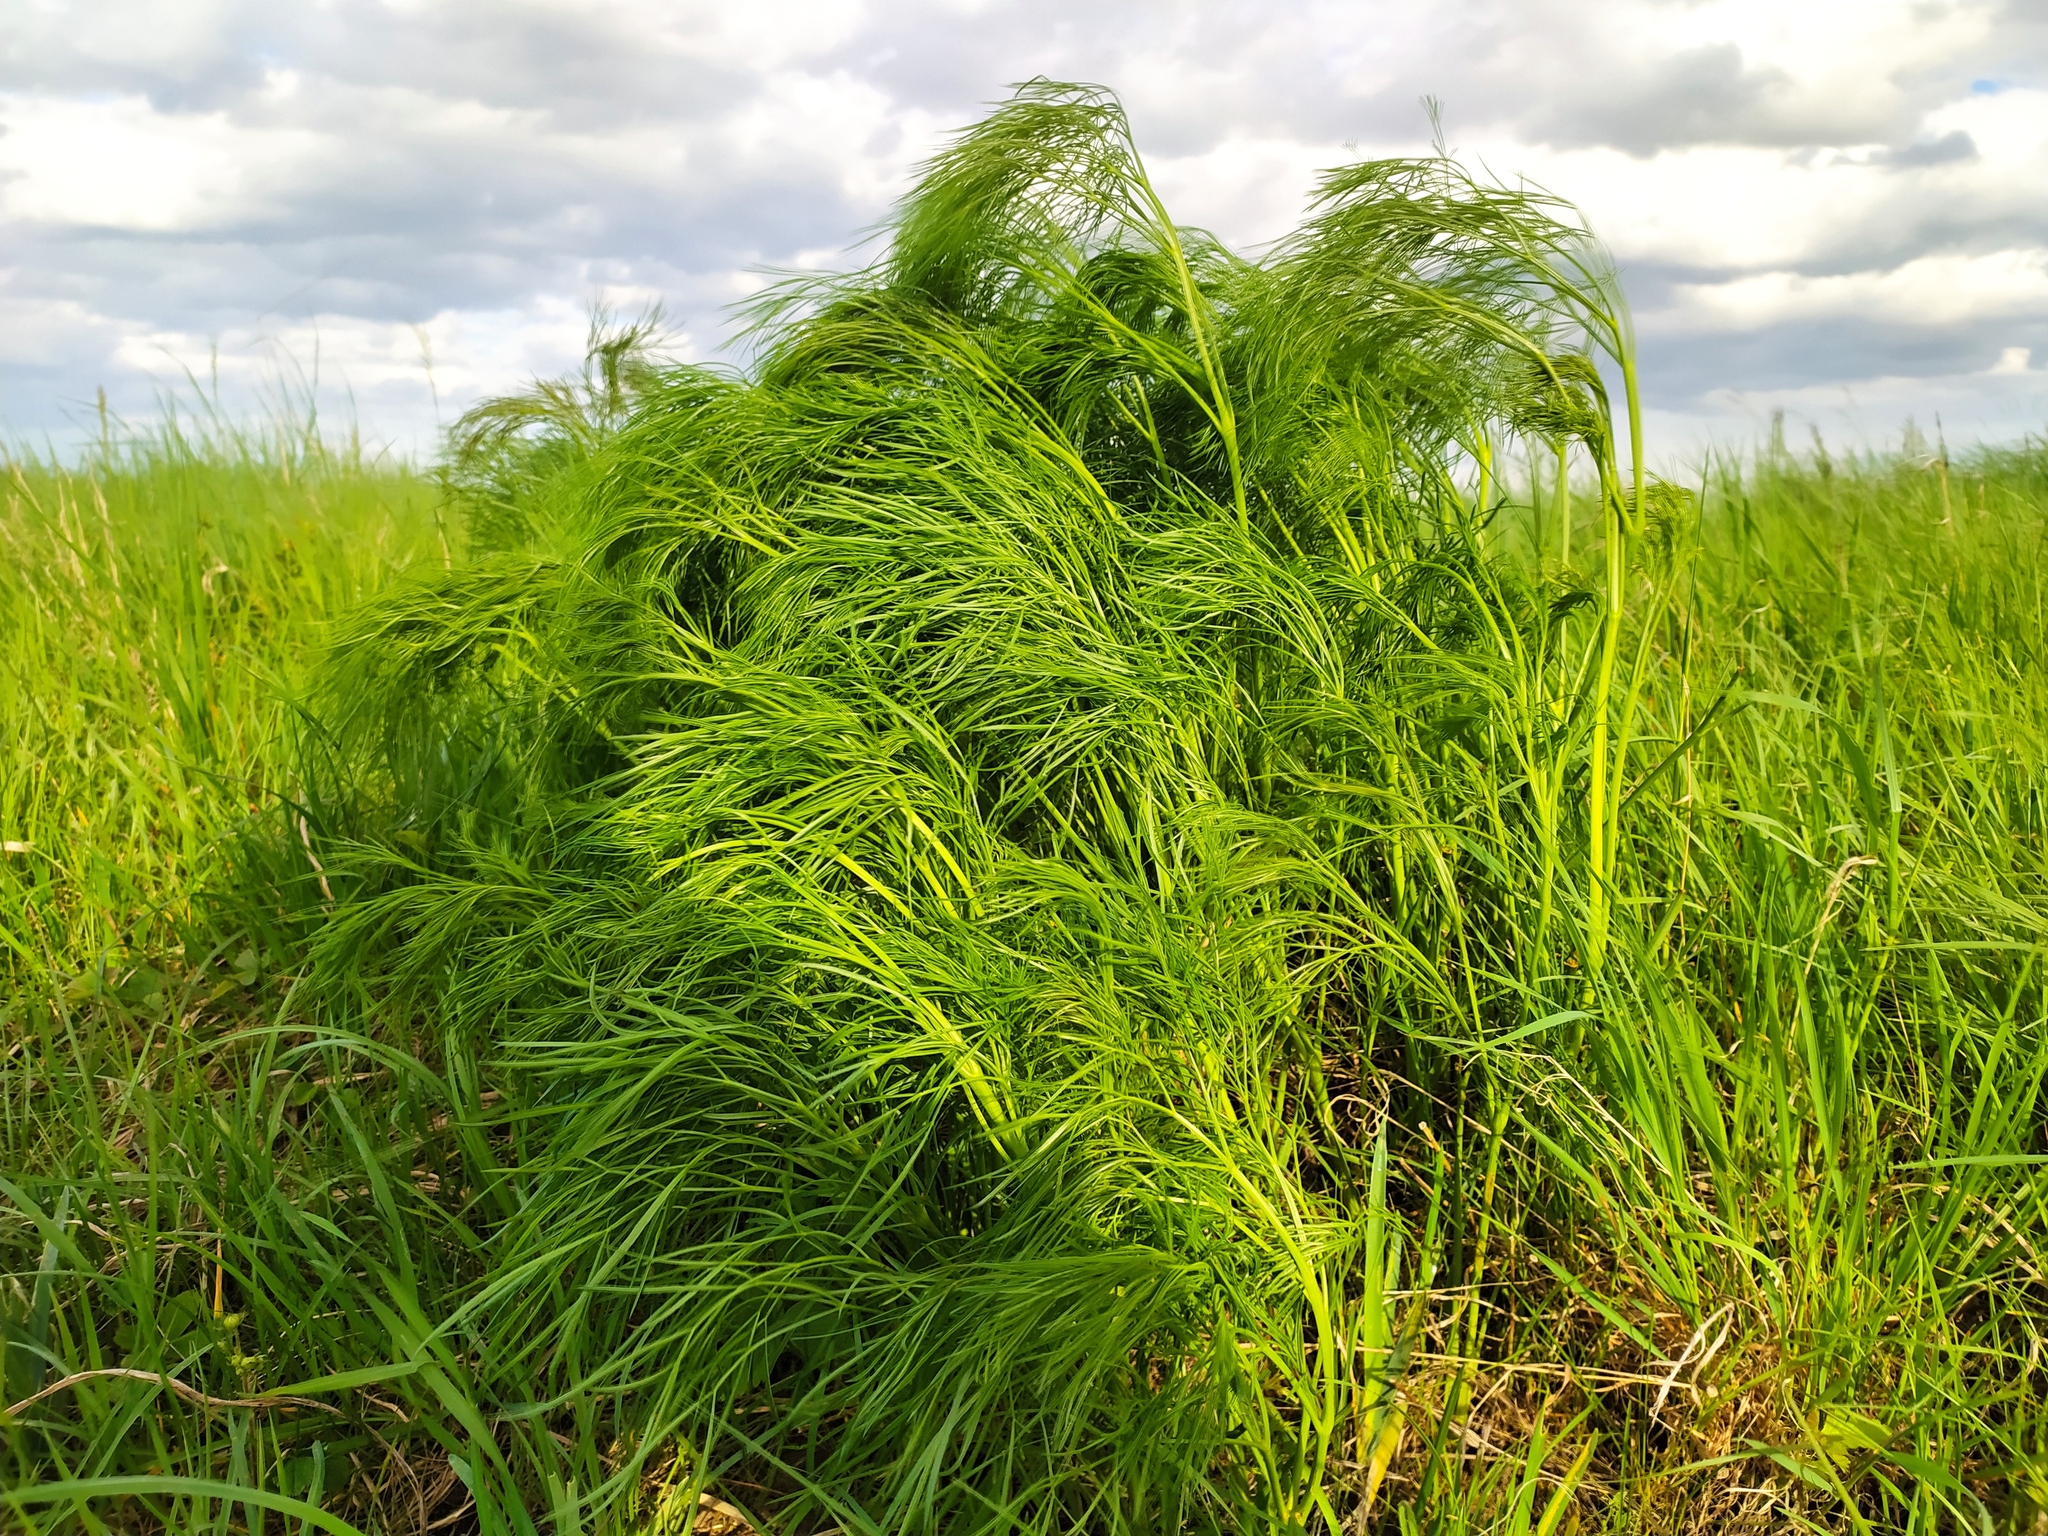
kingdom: Plantae
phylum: Tracheophyta
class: Magnoliopsida
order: Apiales
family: Apiaceae
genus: Peucedanum
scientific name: Peucedanum officinale
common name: Sulphurweed
